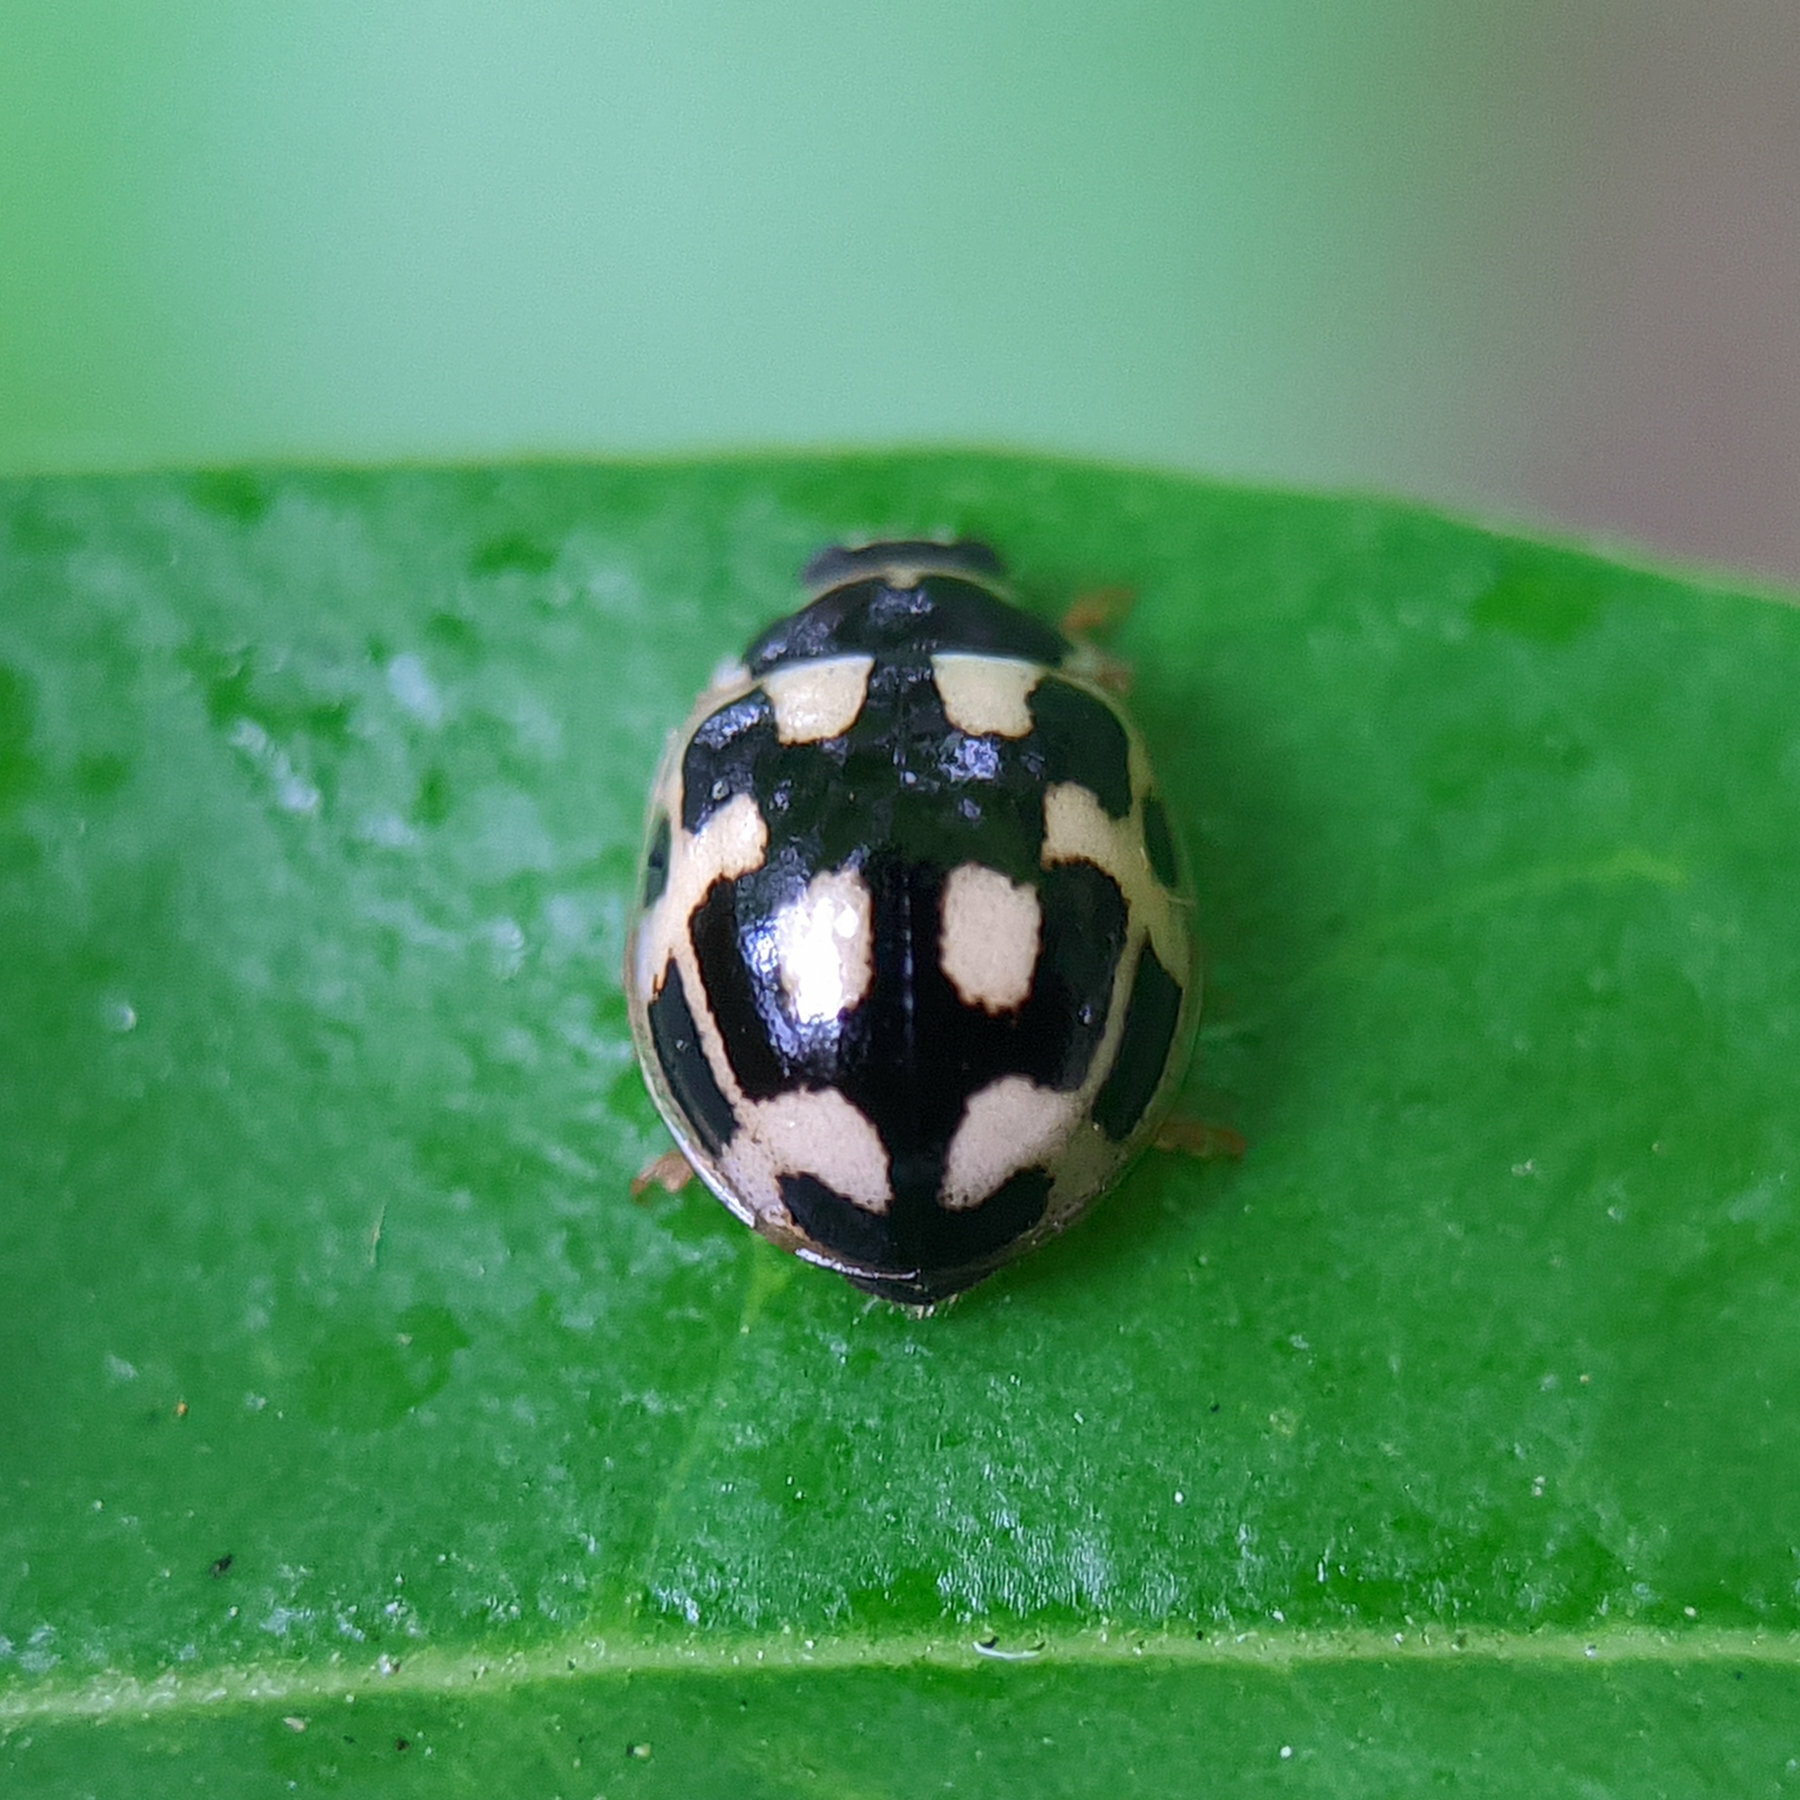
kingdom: Animalia
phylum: Arthropoda
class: Insecta
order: Coleoptera
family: Coccinellidae
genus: Propylaea
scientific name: Propylaea quatuordecimpunctata
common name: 14-spotted ladybird beetle
